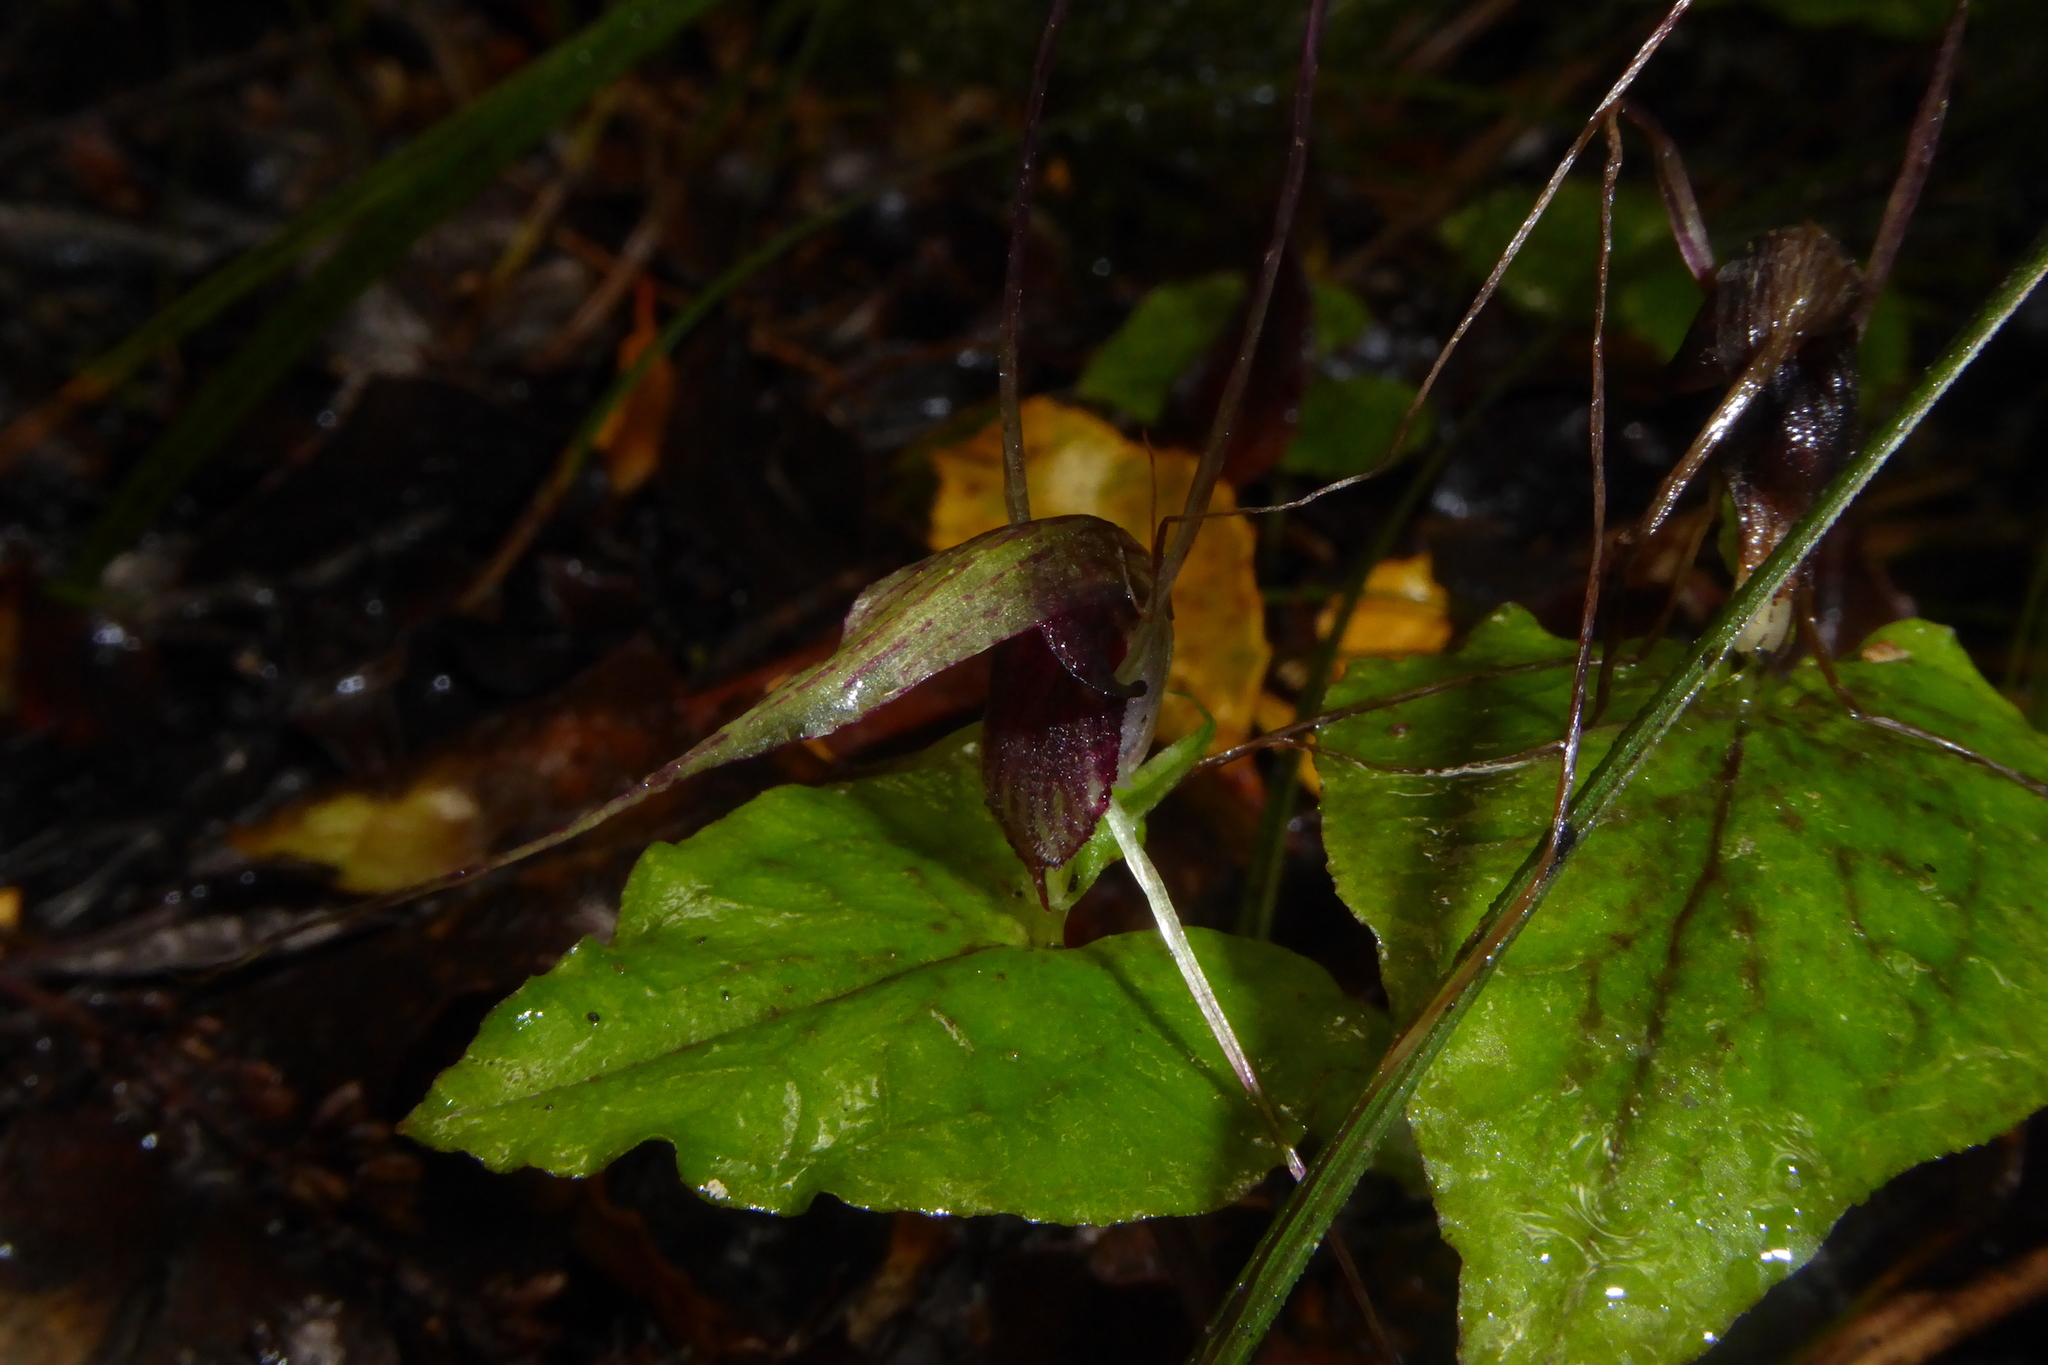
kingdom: Plantae
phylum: Tracheophyta
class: Liliopsida
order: Asparagales
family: Orchidaceae
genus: Corybas
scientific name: Corybas acuminatus
